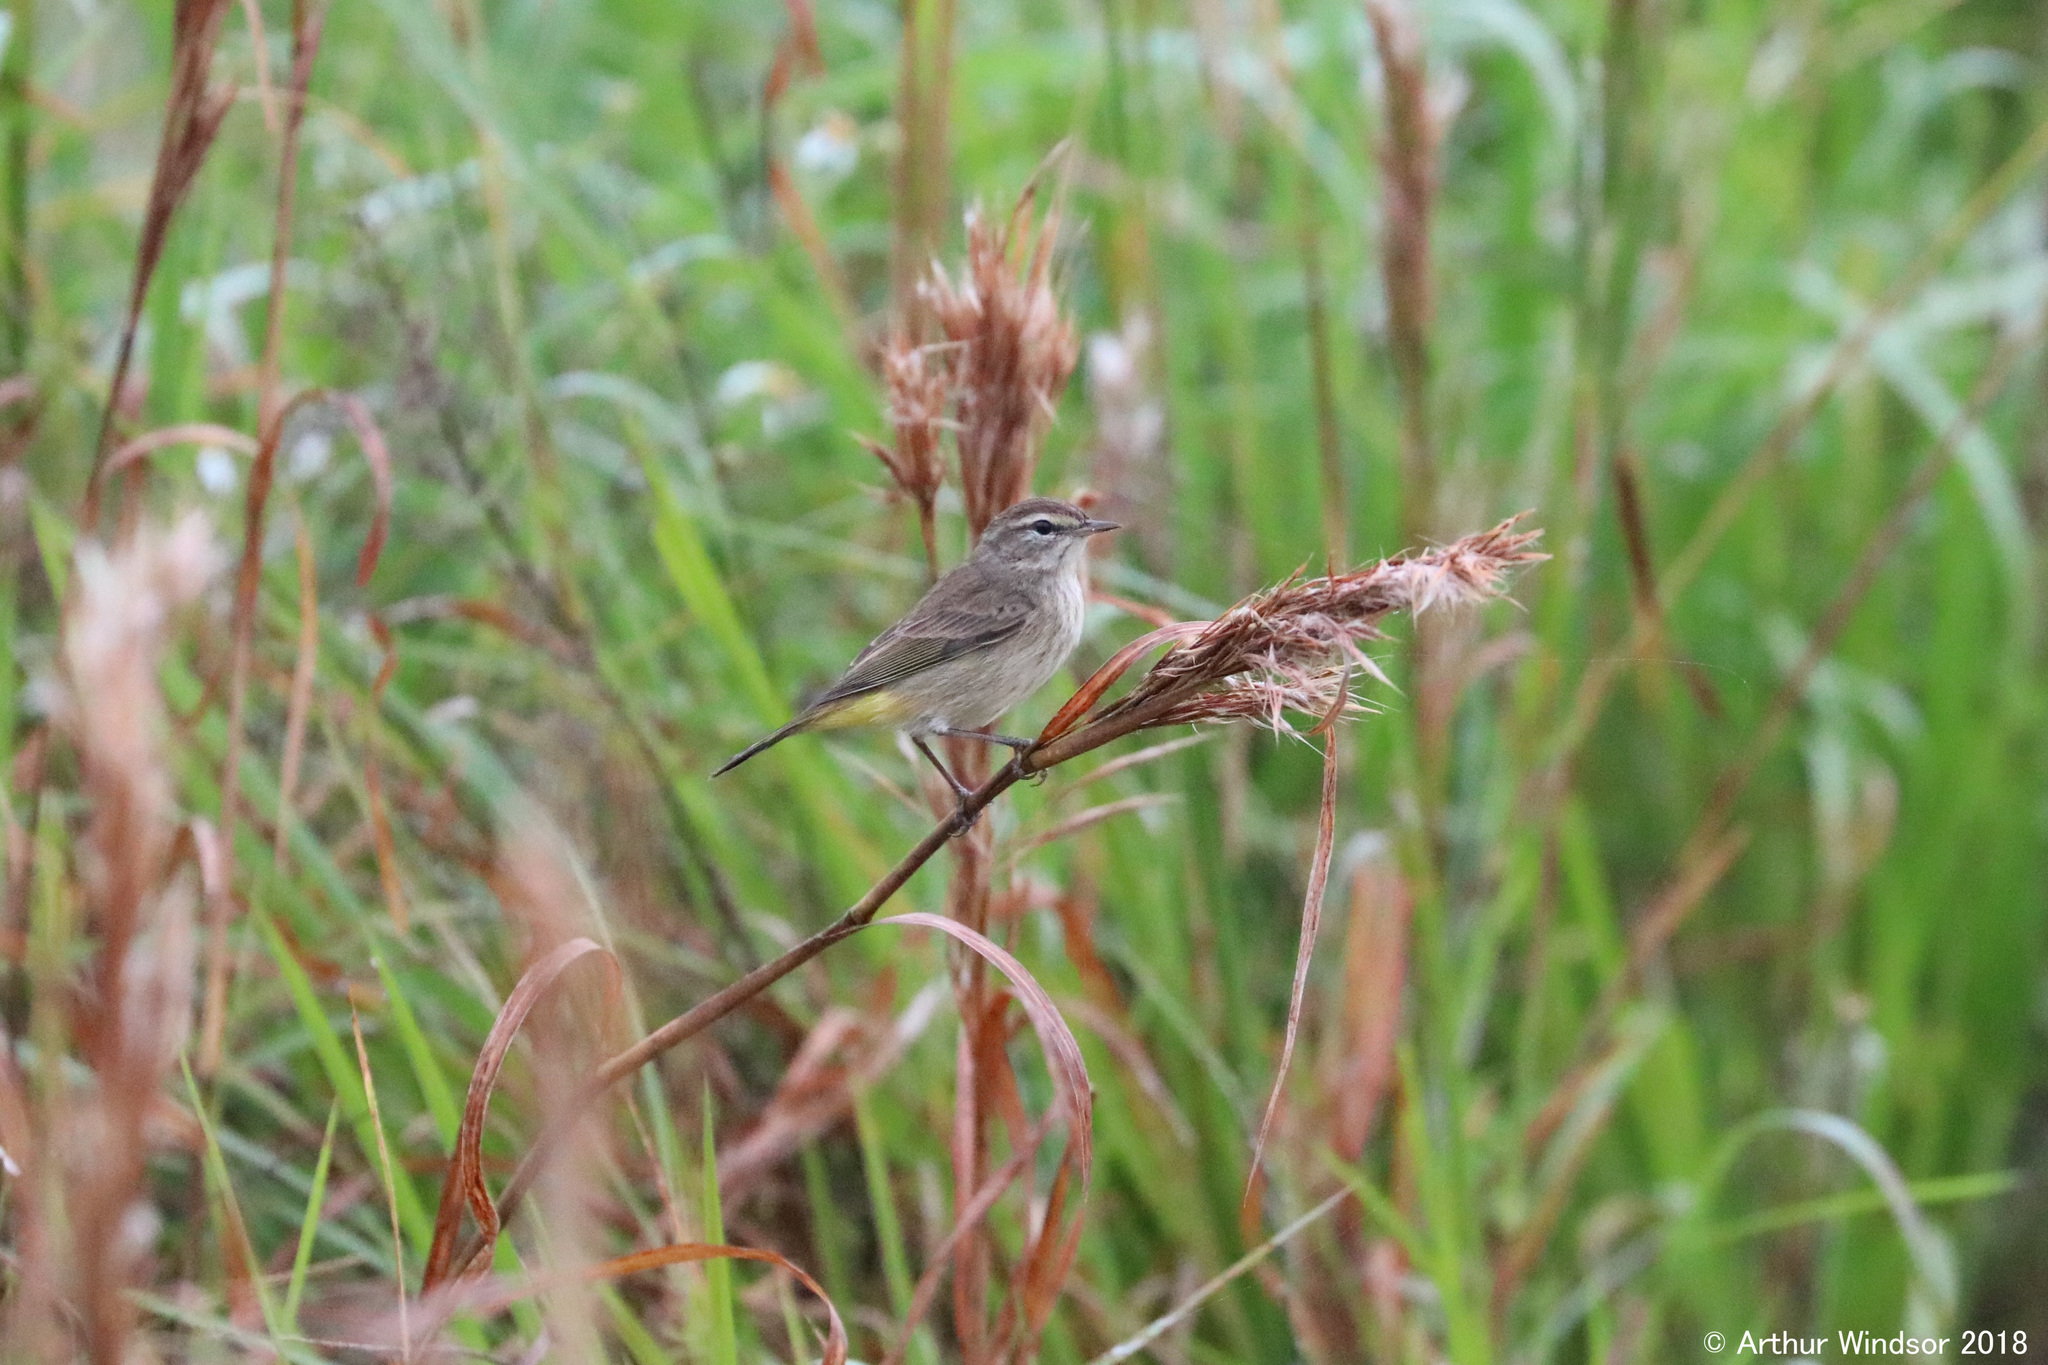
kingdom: Animalia
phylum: Chordata
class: Aves
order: Passeriformes
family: Parulidae
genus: Setophaga
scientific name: Setophaga palmarum
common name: Palm warbler
